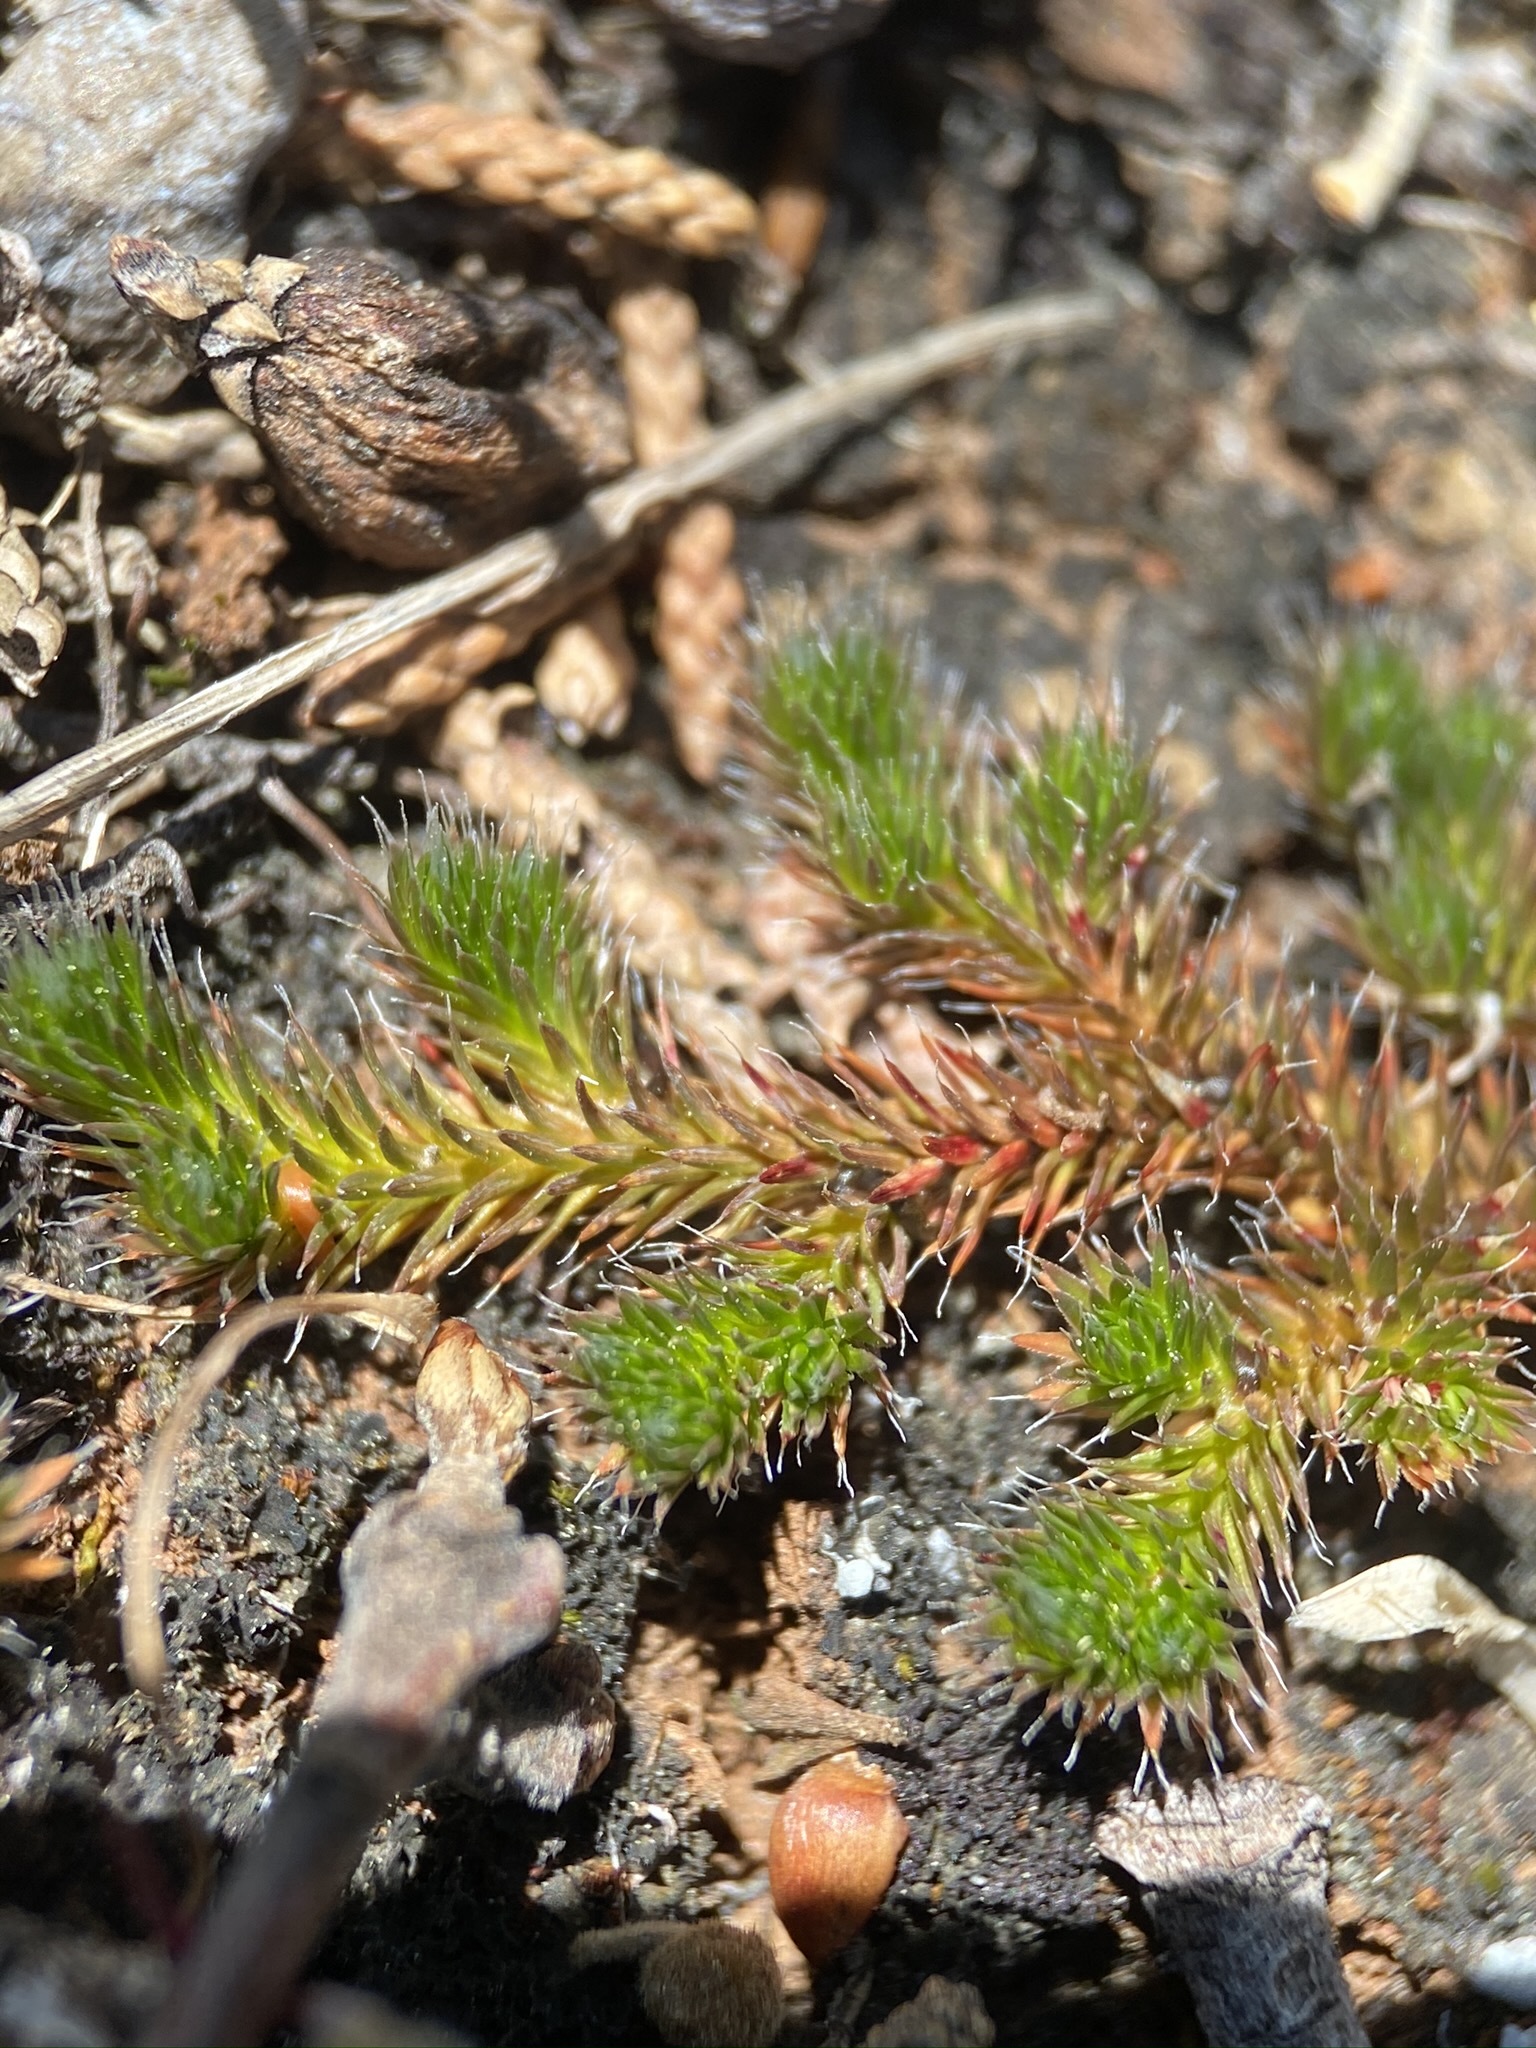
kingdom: Plantae
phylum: Tracheophyta
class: Lycopodiopsida
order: Selaginellales
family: Selaginellaceae
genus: Selaginella
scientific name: Selaginella hansenii
